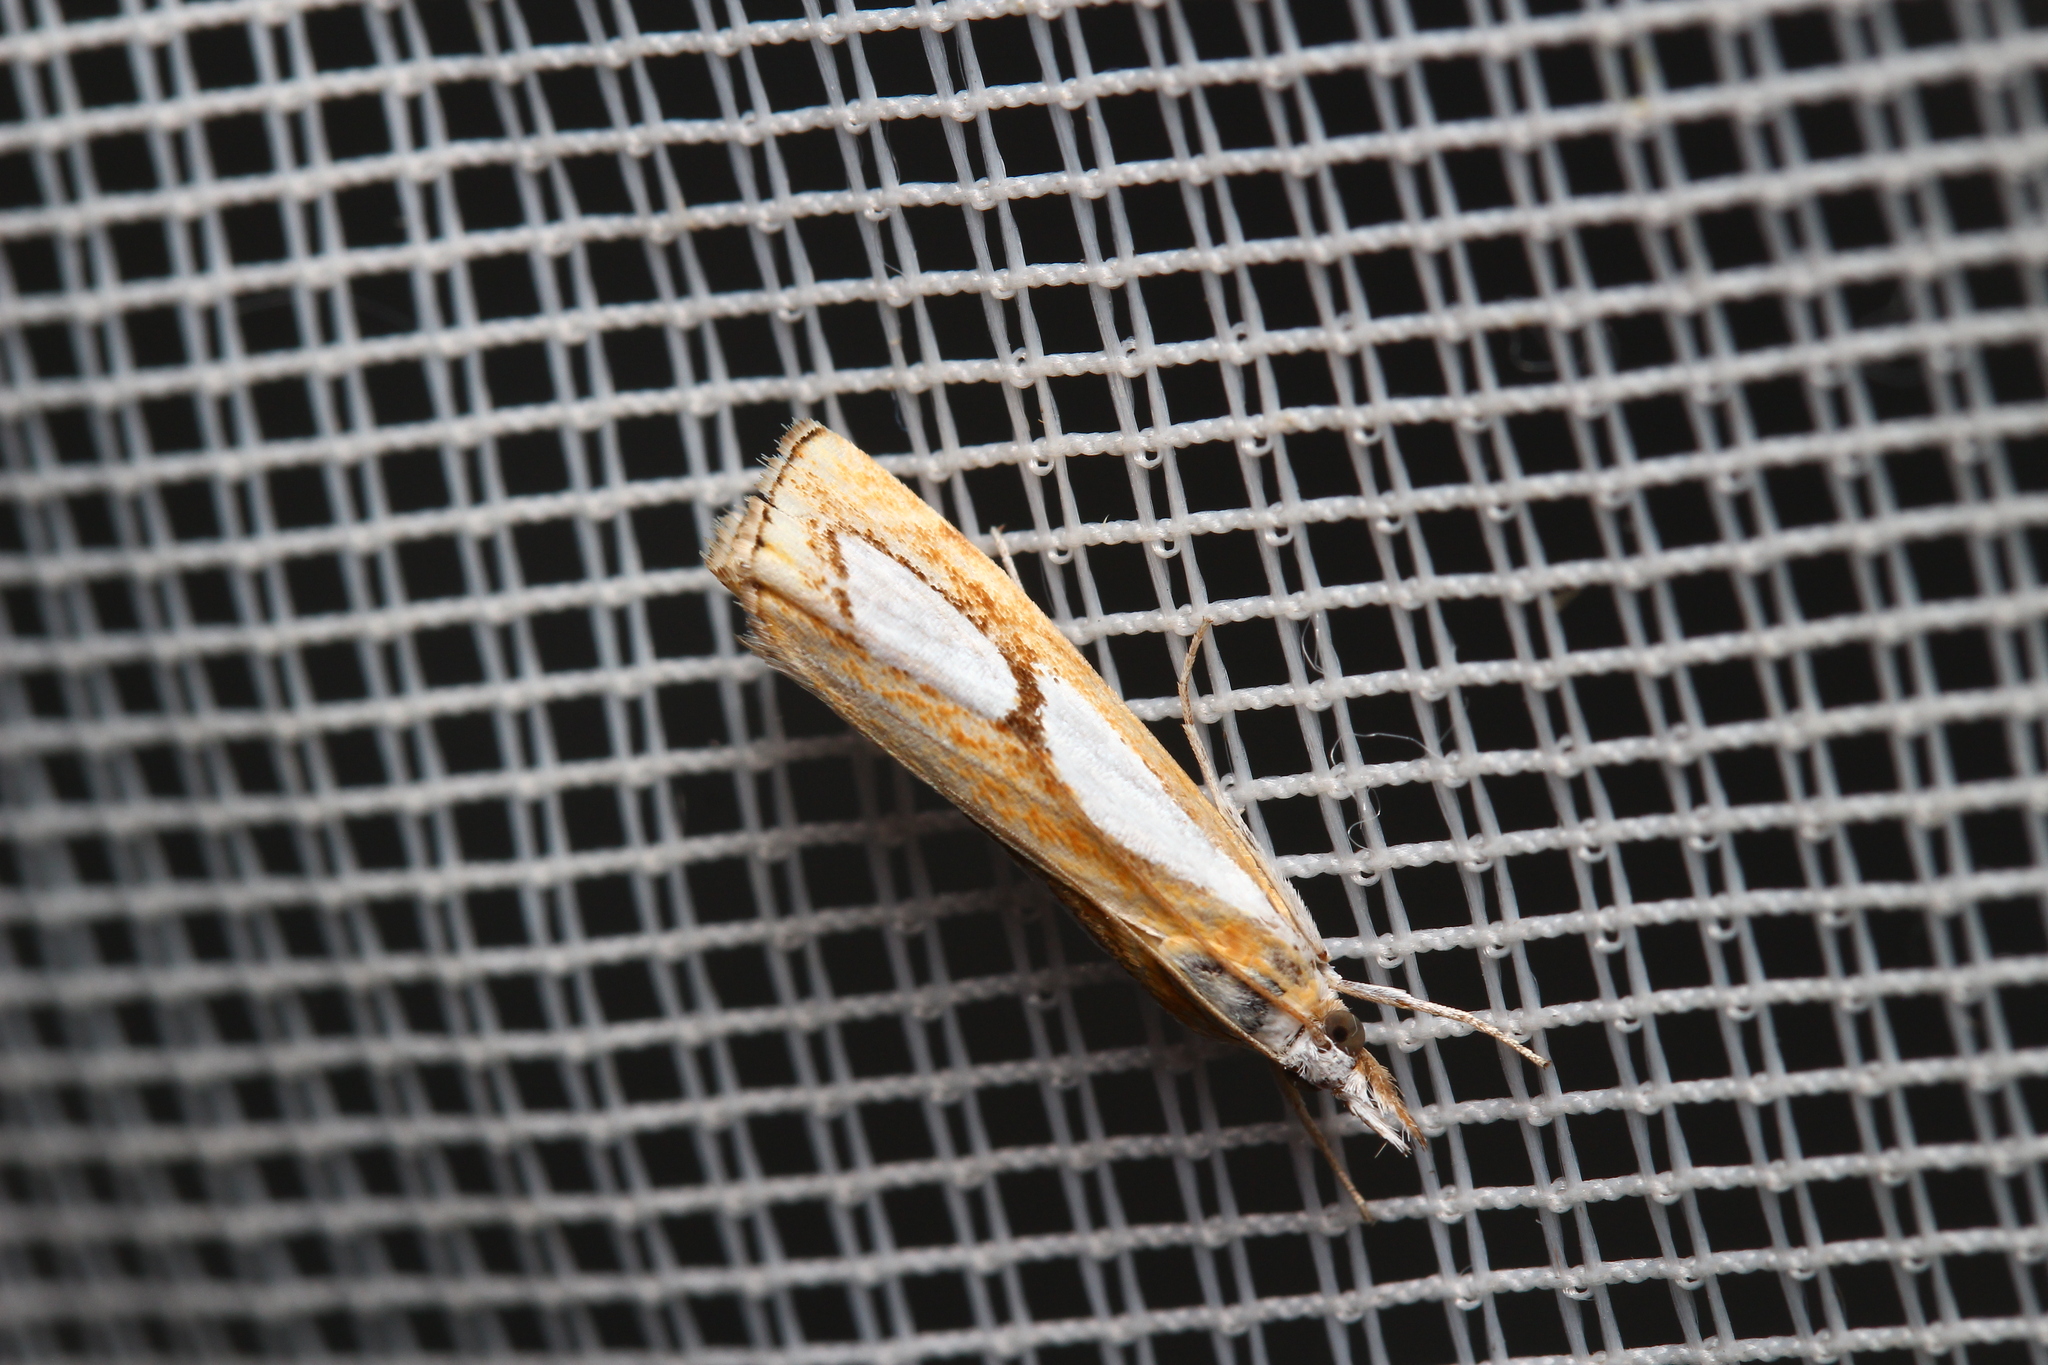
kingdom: Animalia
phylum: Arthropoda
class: Insecta
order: Lepidoptera
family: Crambidae
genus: Catoptria
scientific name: Catoptria pinella
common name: Pearl grass-veneer
